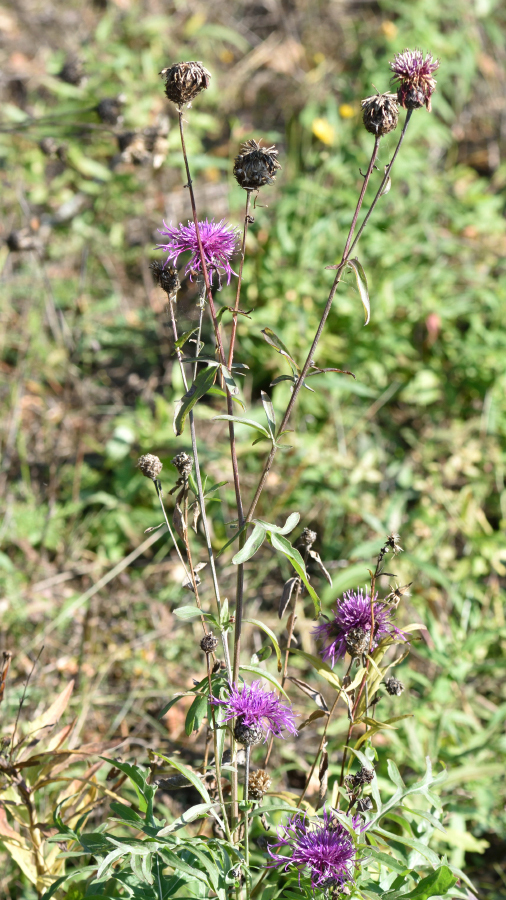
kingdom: Plantae
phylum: Tracheophyta
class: Magnoliopsida
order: Asterales
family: Asteraceae
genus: Centaurea
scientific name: Centaurea scabiosa
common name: Greater knapweed
